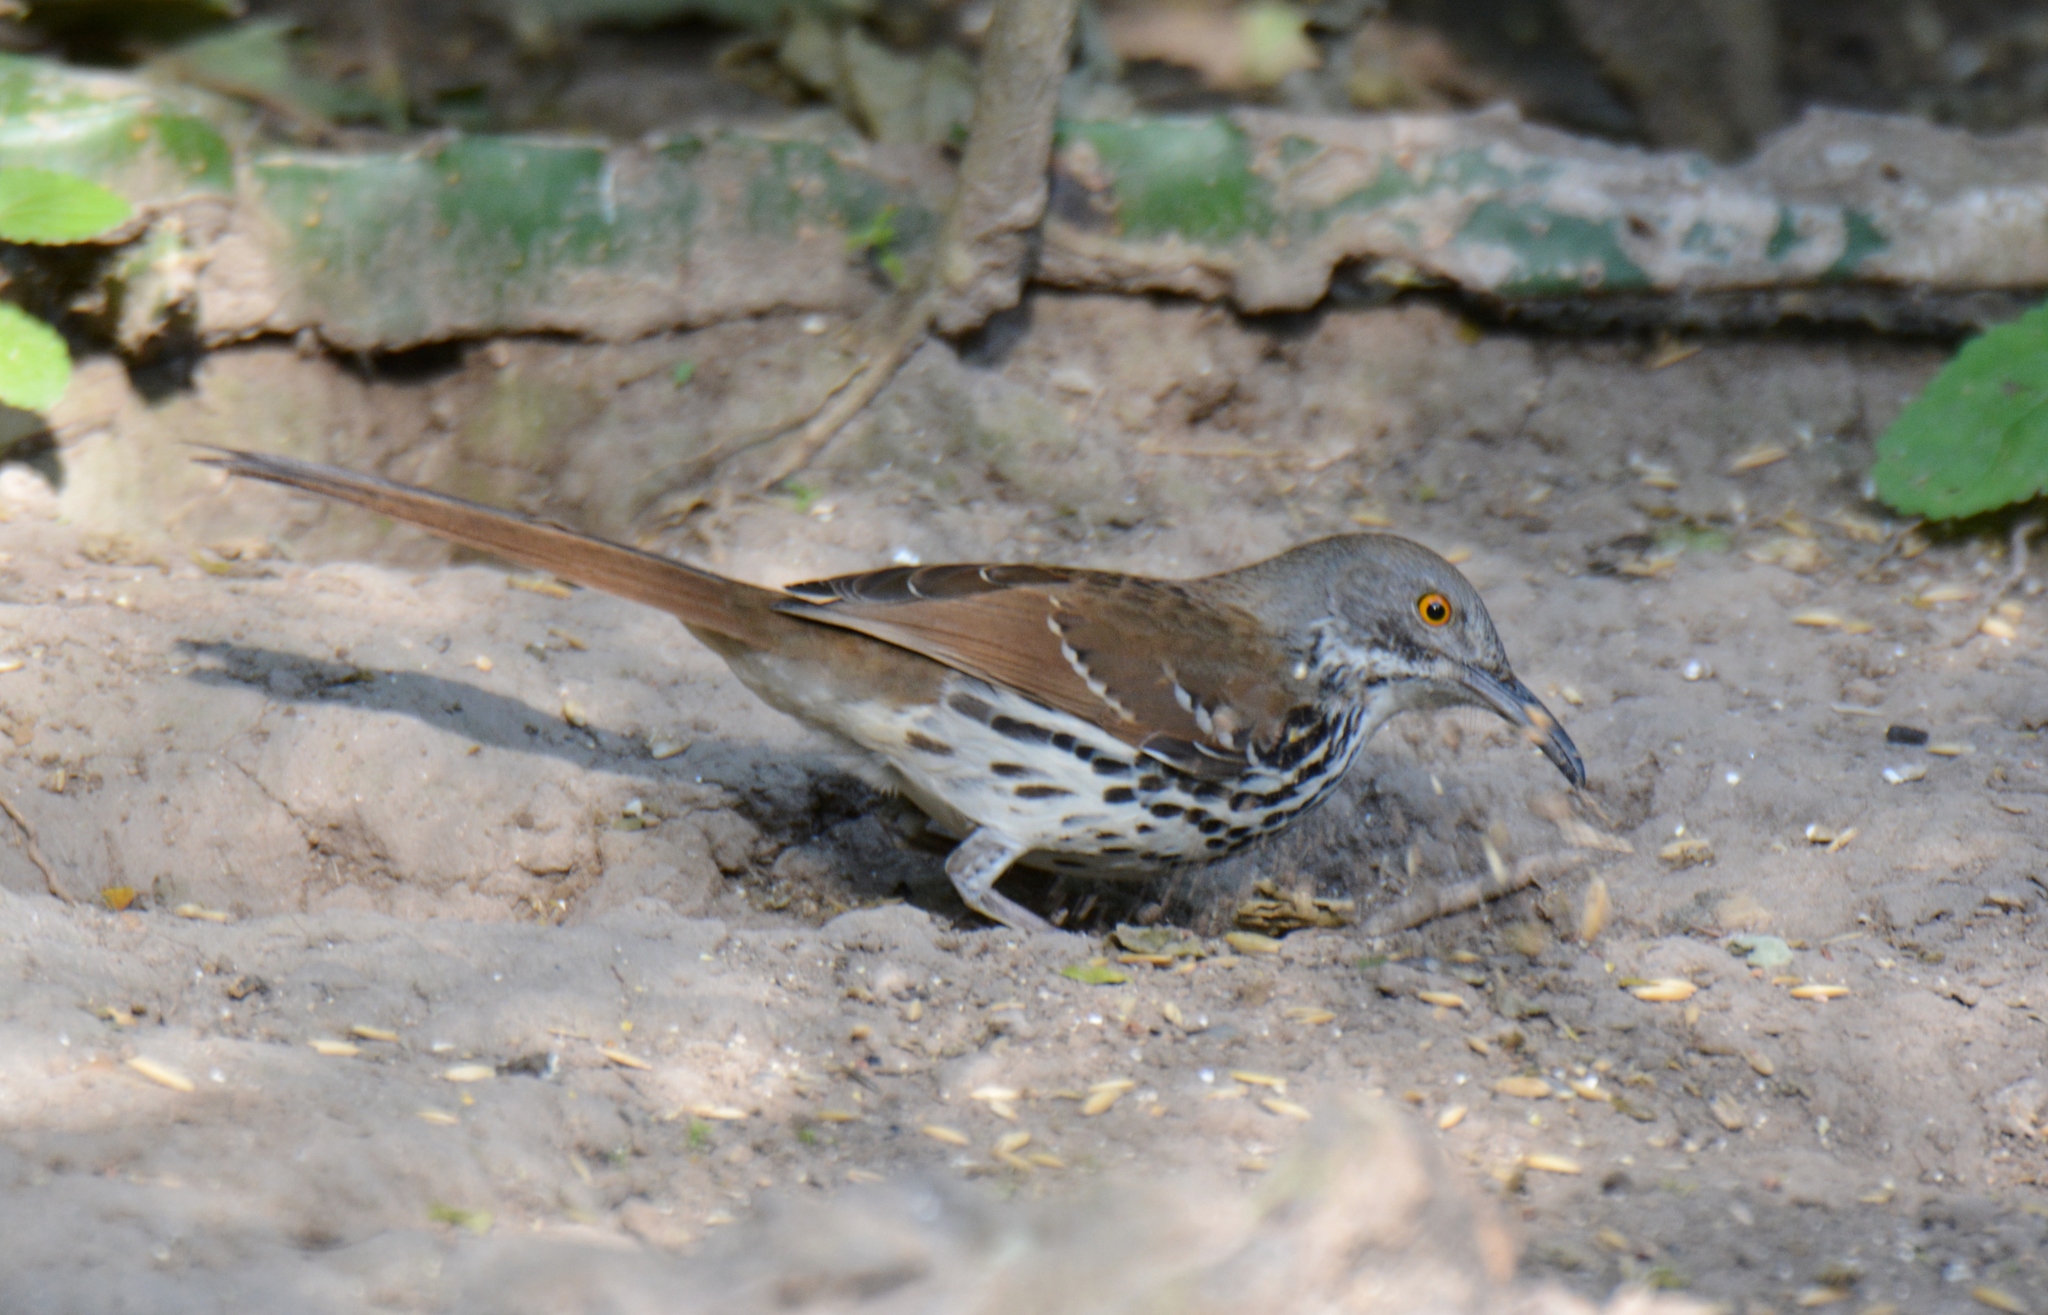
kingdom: Animalia
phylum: Chordata
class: Aves
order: Passeriformes
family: Mimidae
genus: Toxostoma
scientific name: Toxostoma longirostre
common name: Long-billed thrasher
